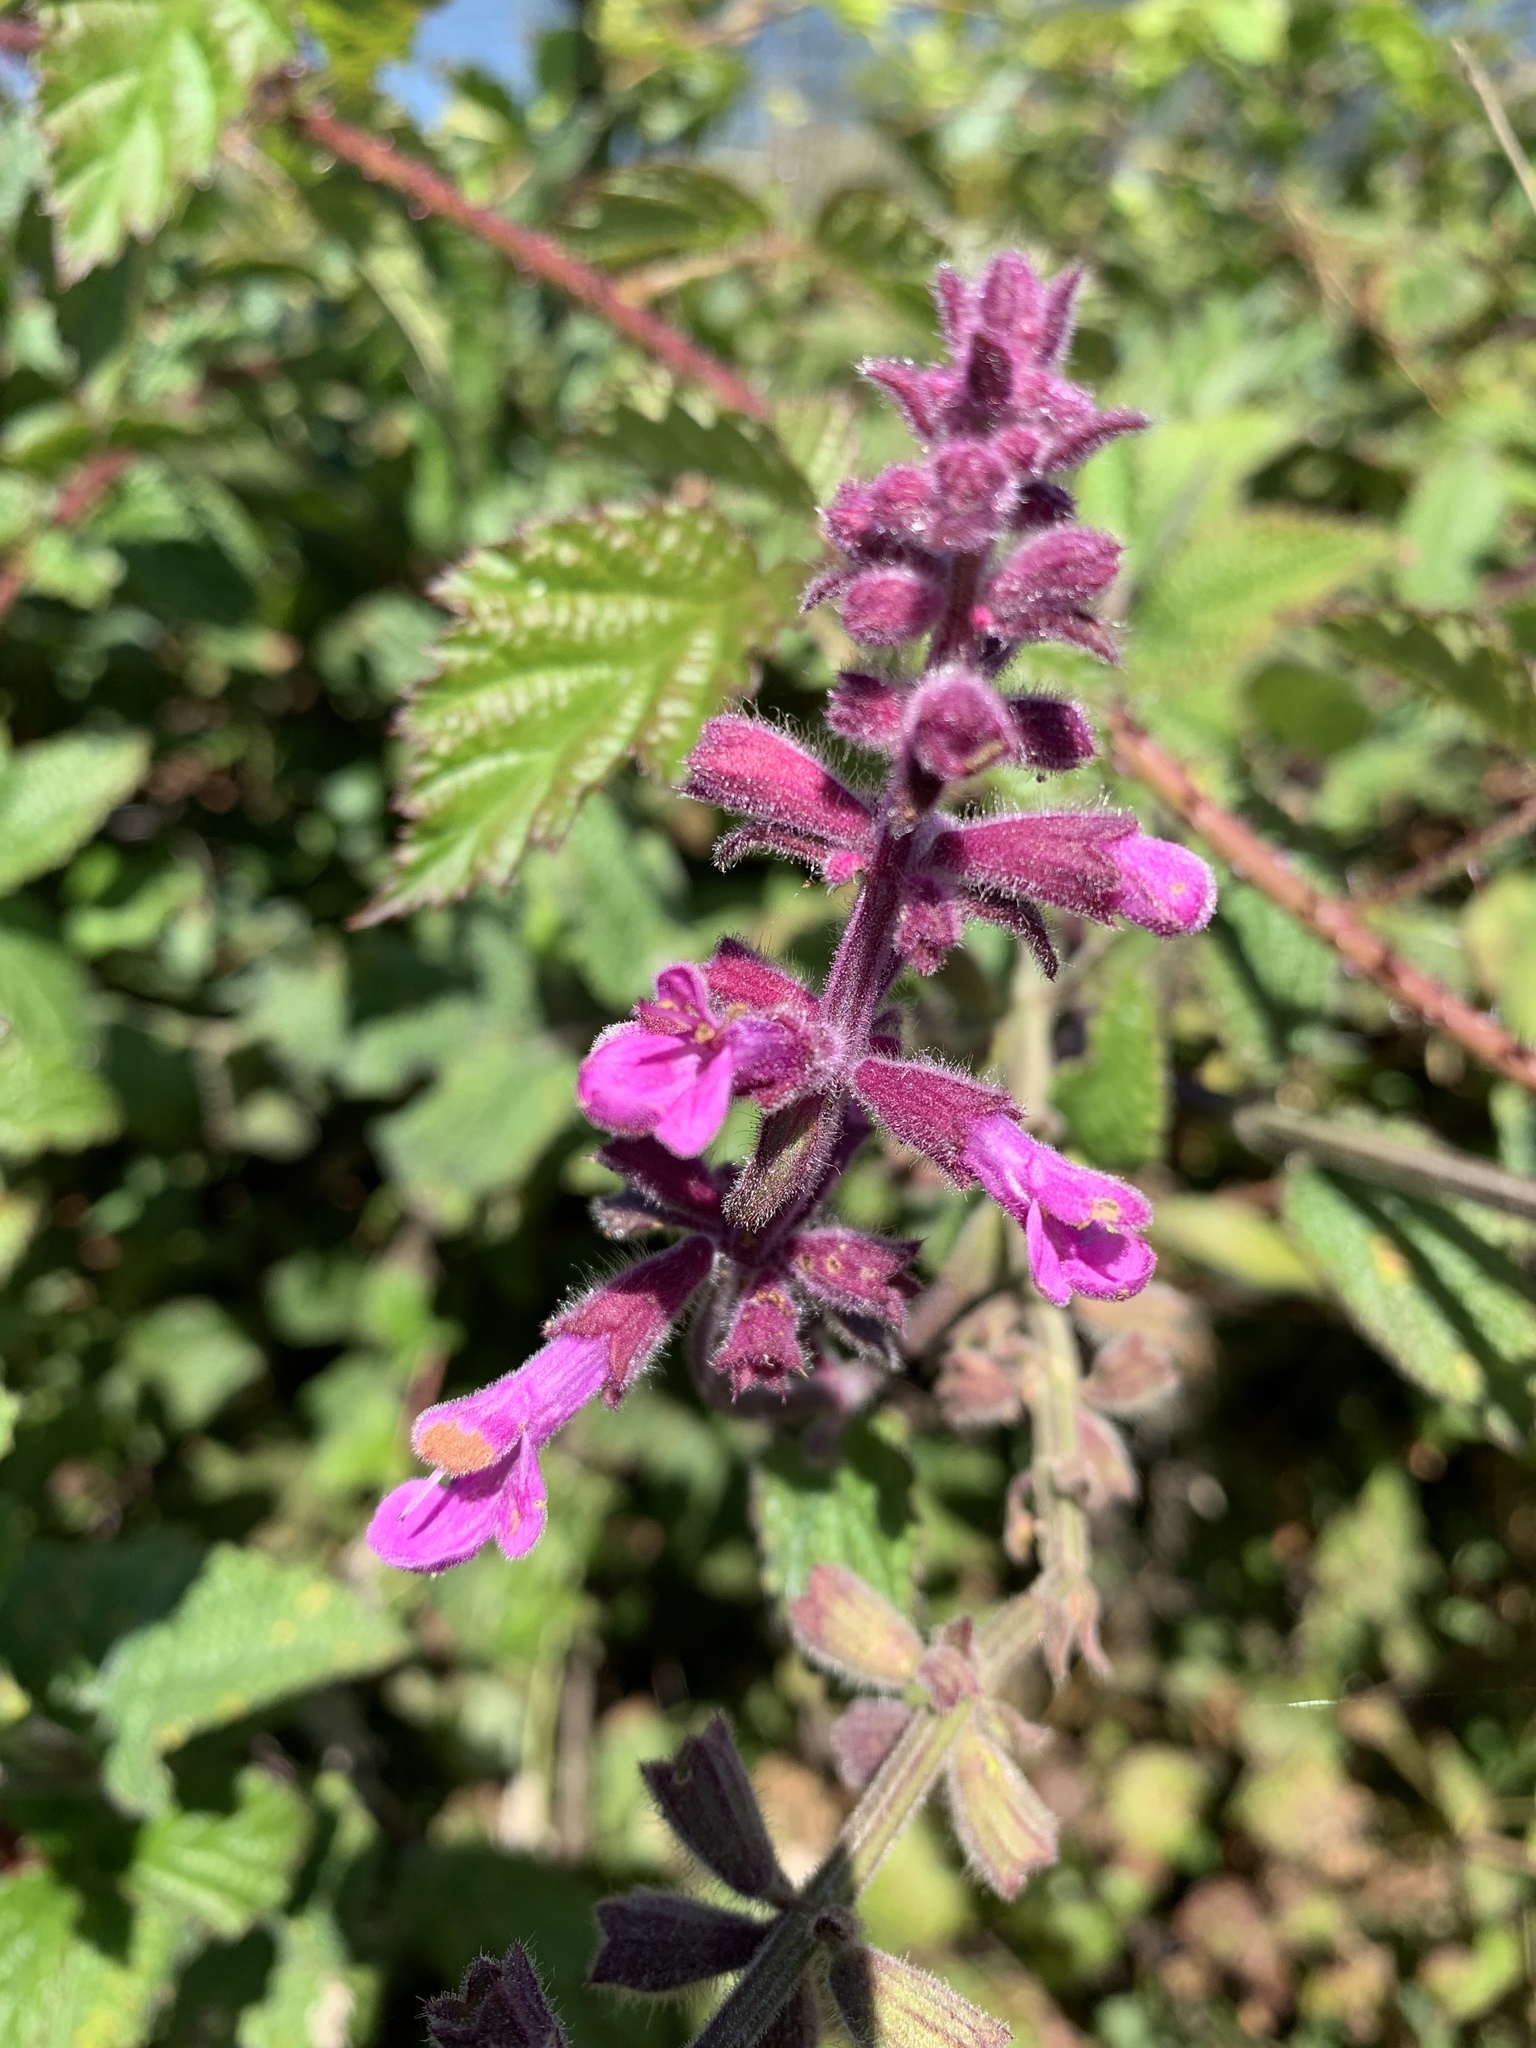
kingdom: Plantae
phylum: Tracheophyta
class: Magnoliopsida
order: Lamiales
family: Lamiaceae
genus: Stachys
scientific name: Stachys chamissonis
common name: Coastal hedge-nettle
